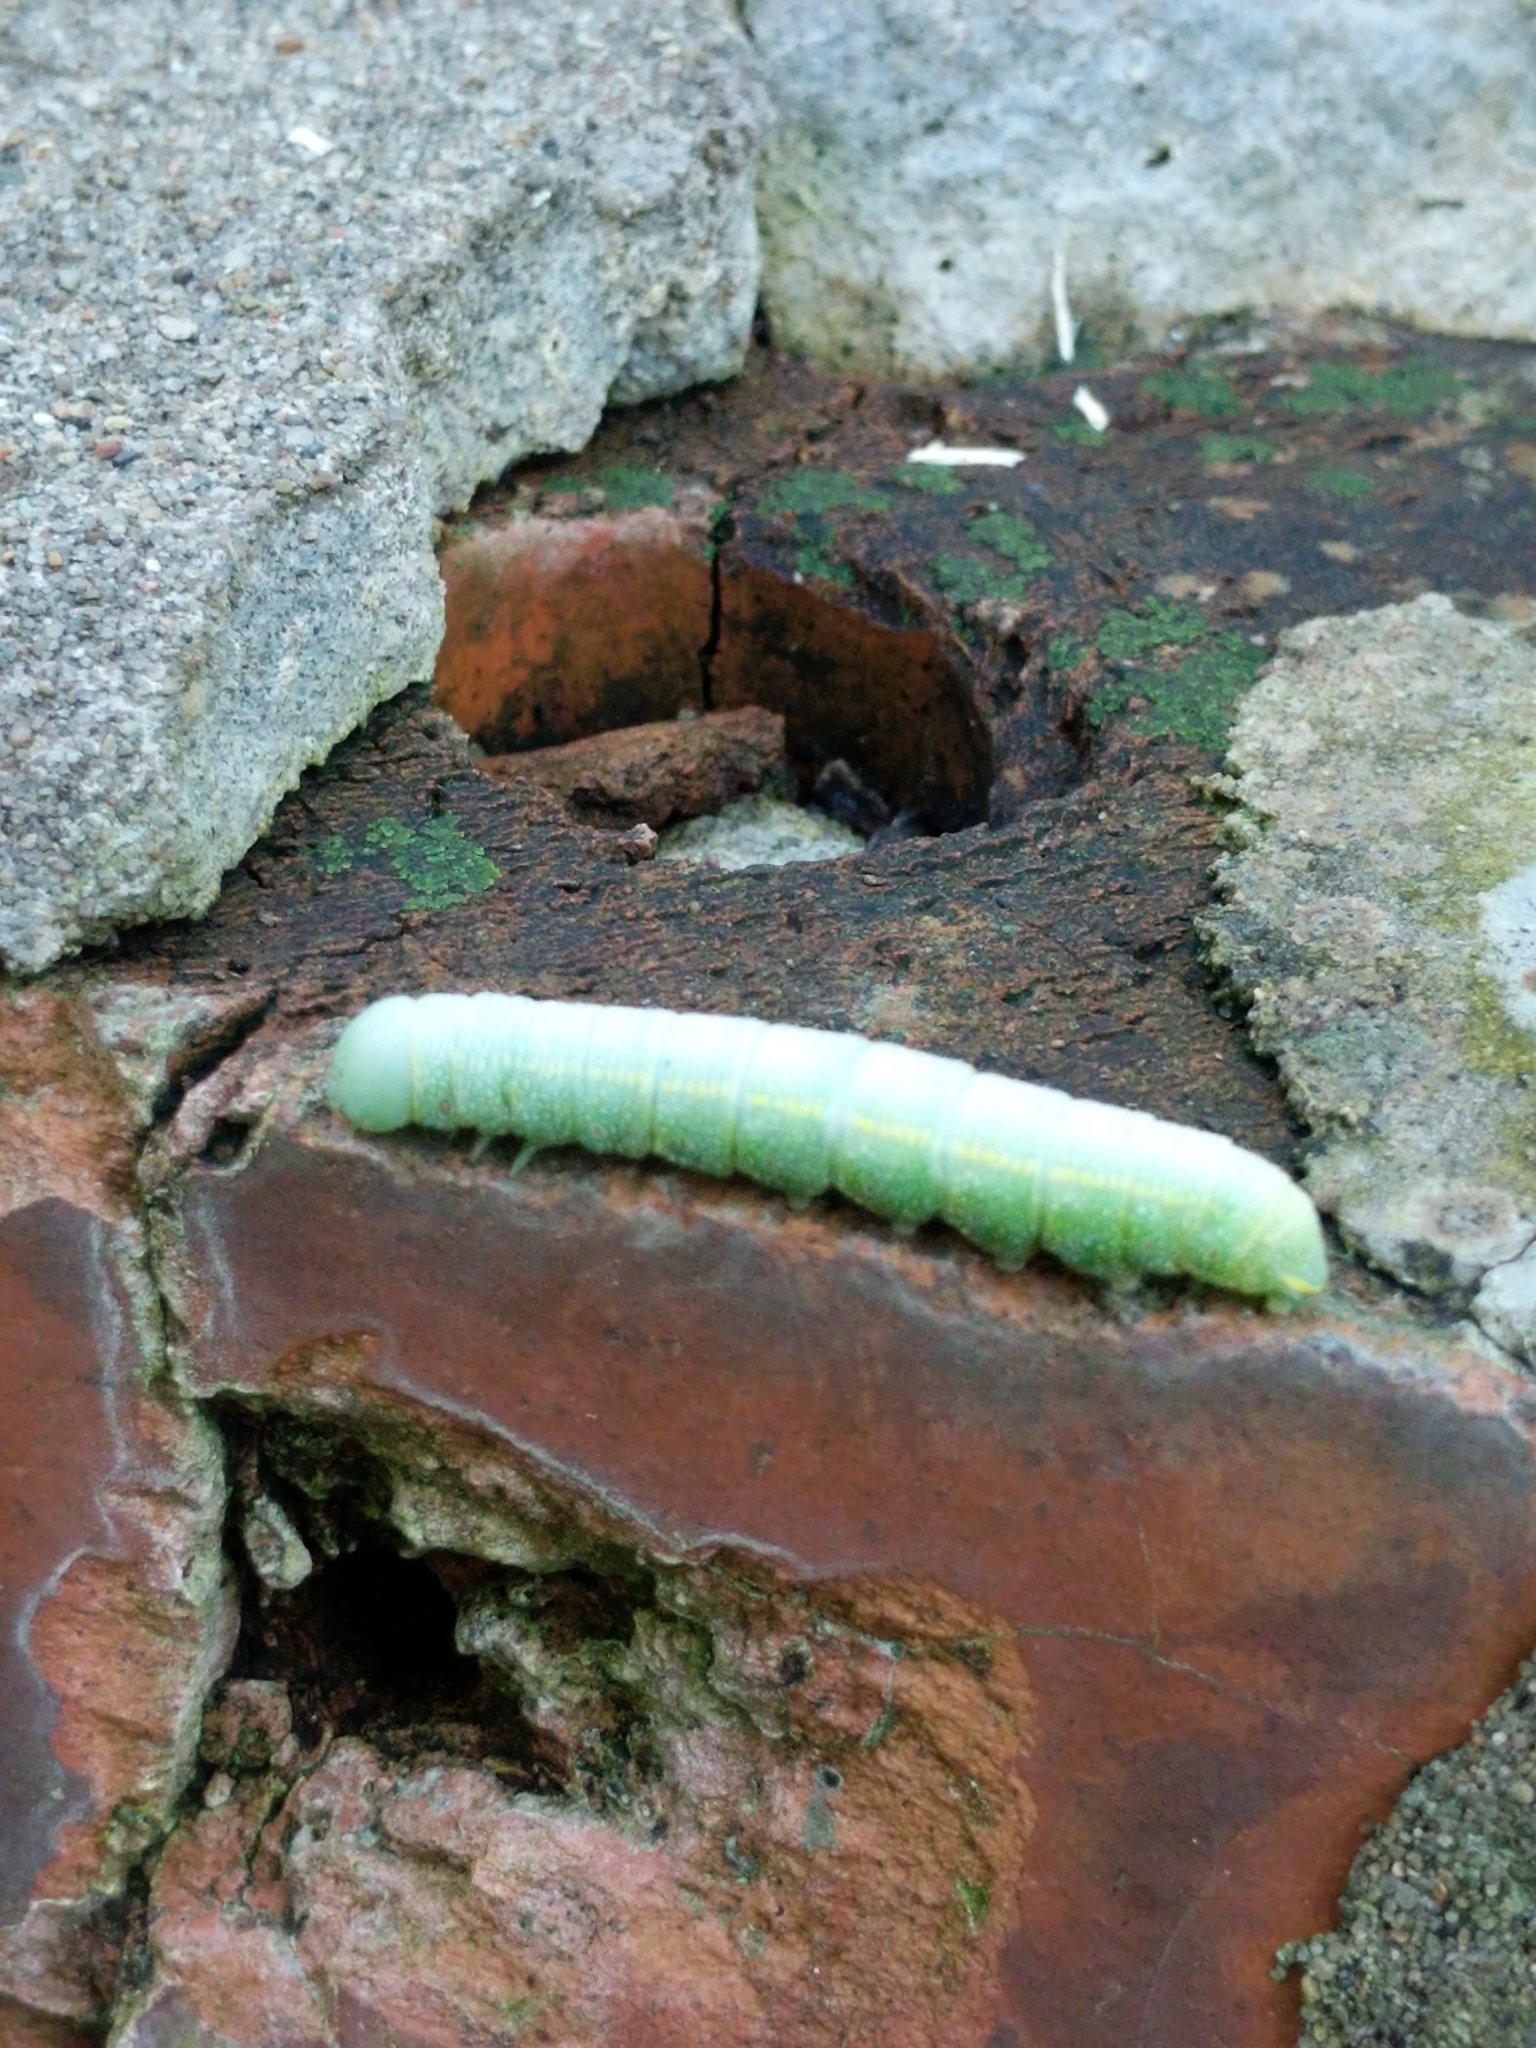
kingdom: Animalia
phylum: Arthropoda
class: Insecta
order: Lepidoptera
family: Notodontidae
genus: Nadata
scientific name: Nadata gibbosa
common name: White-dotted prominent
